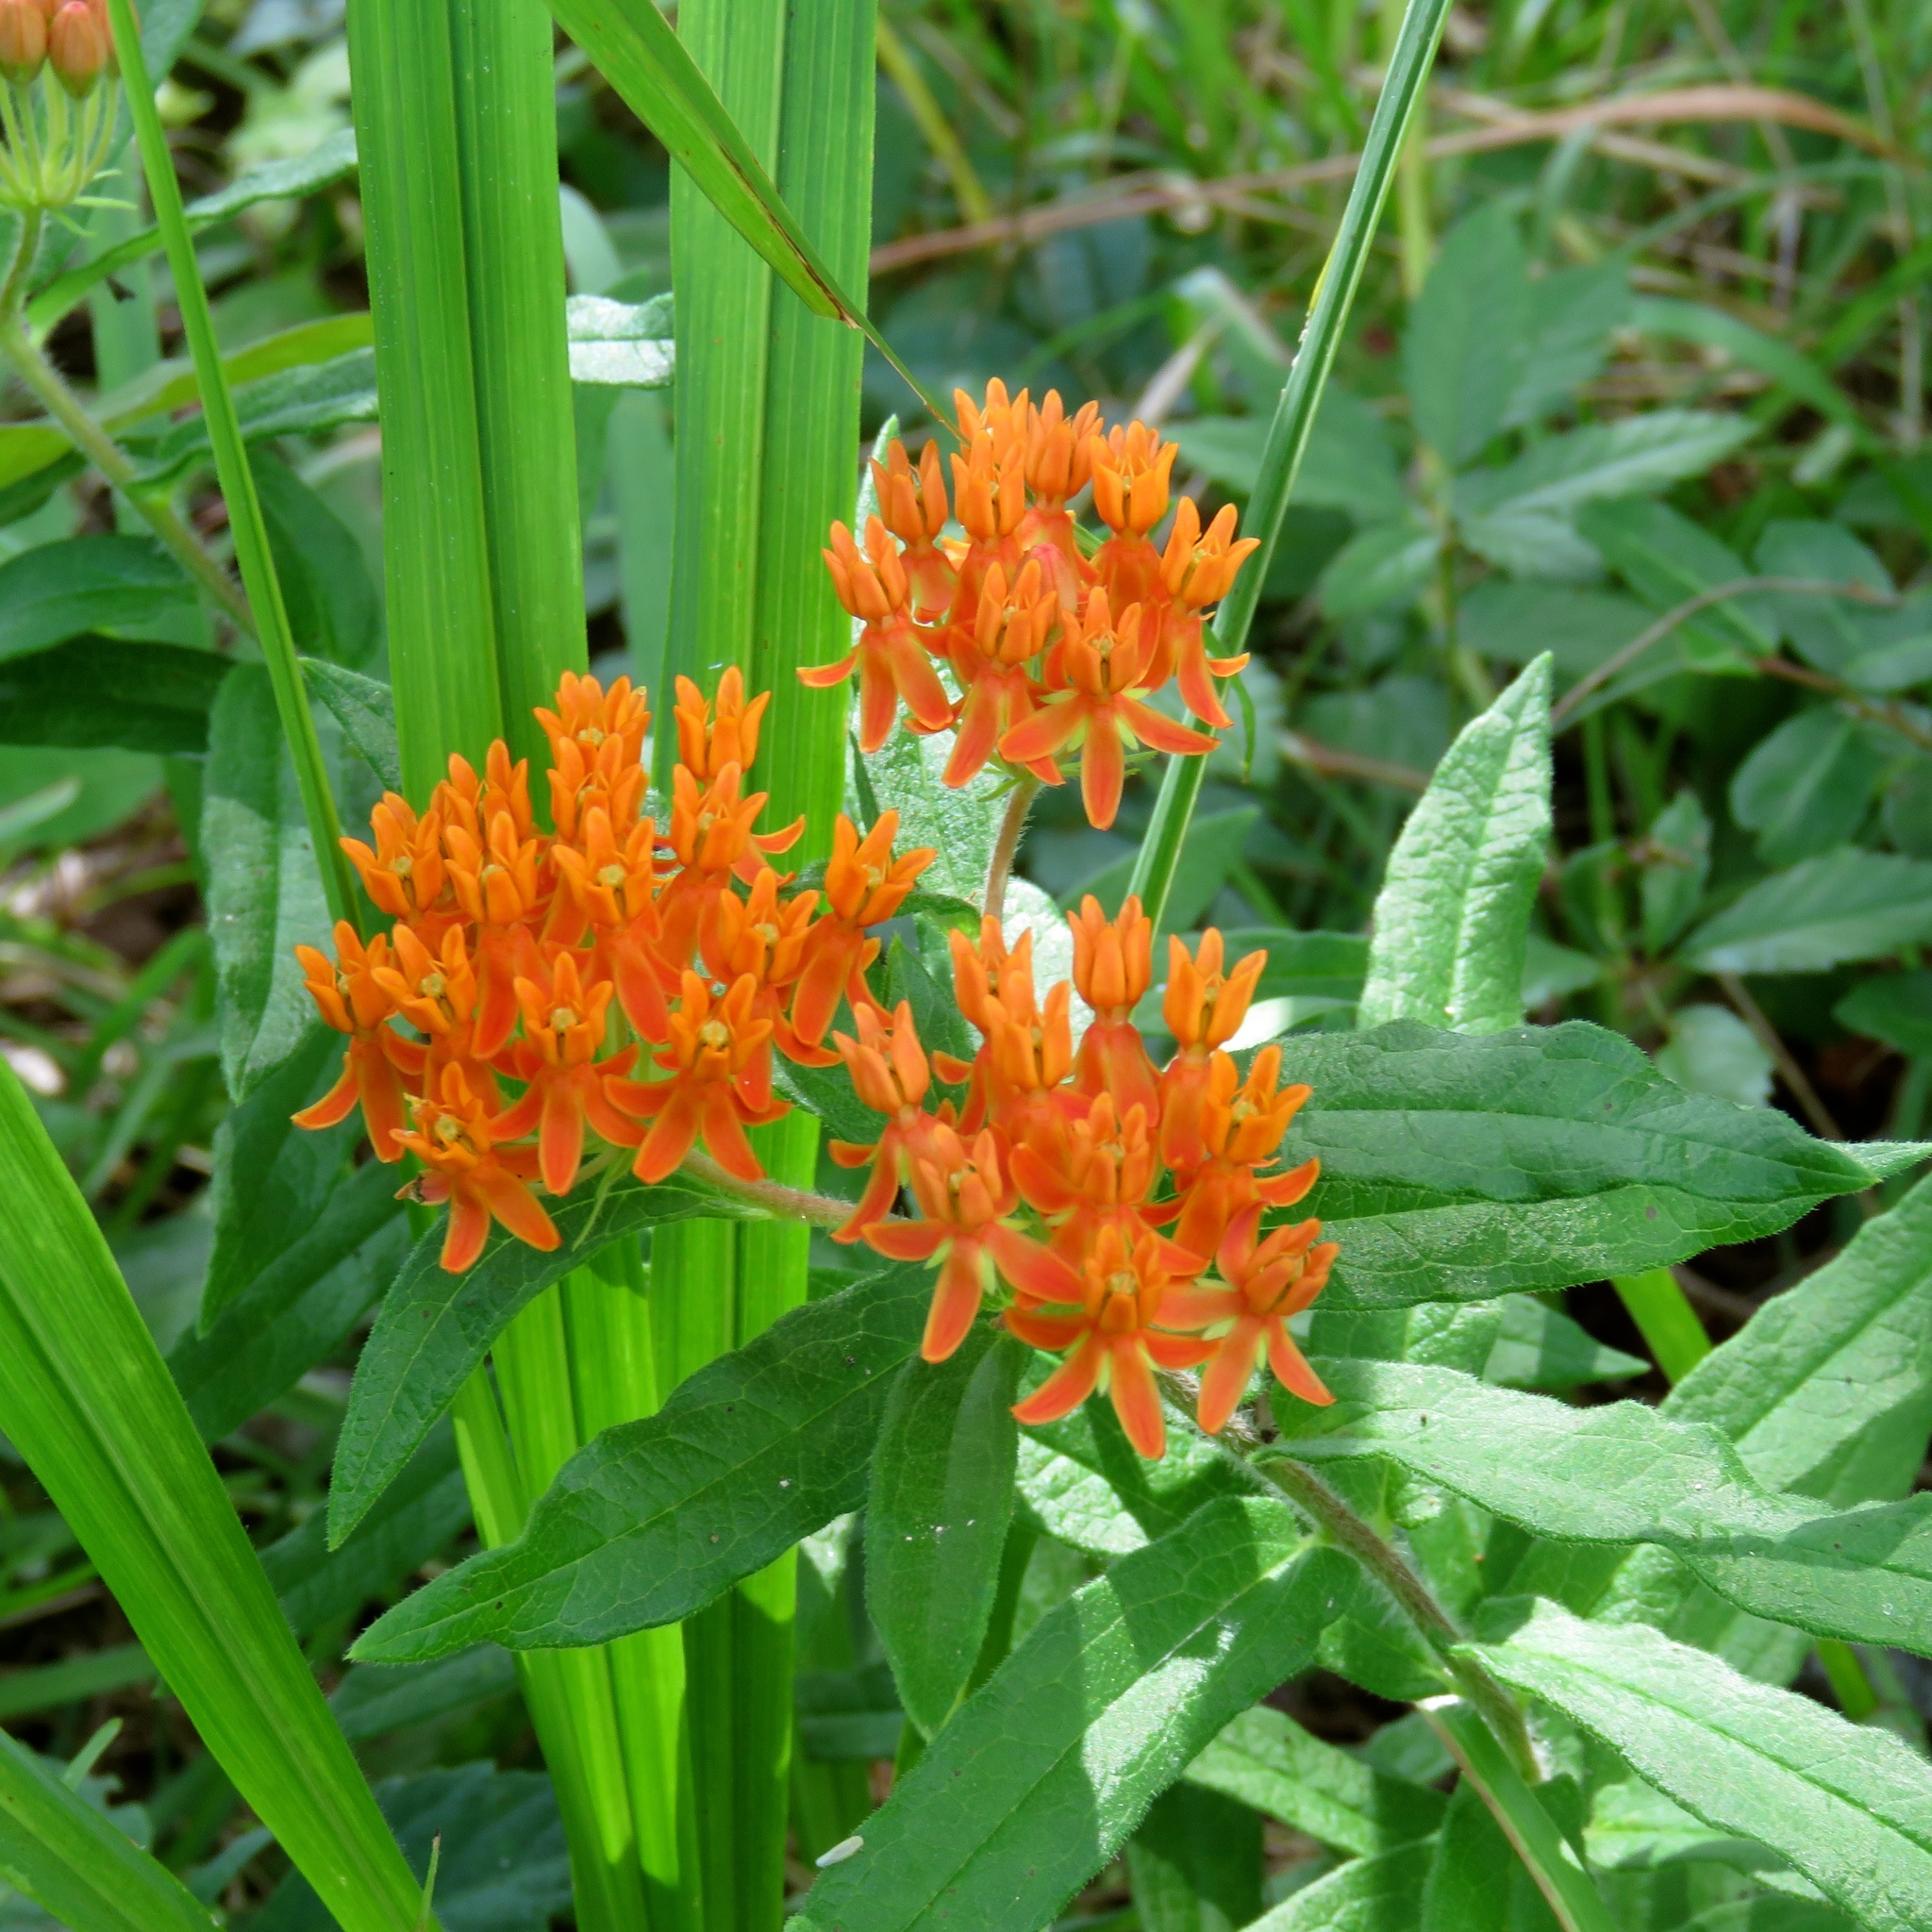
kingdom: Plantae
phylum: Tracheophyta
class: Magnoliopsida
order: Gentianales
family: Apocynaceae
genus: Asclepias
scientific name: Asclepias tuberosa
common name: Butterfly milkweed
